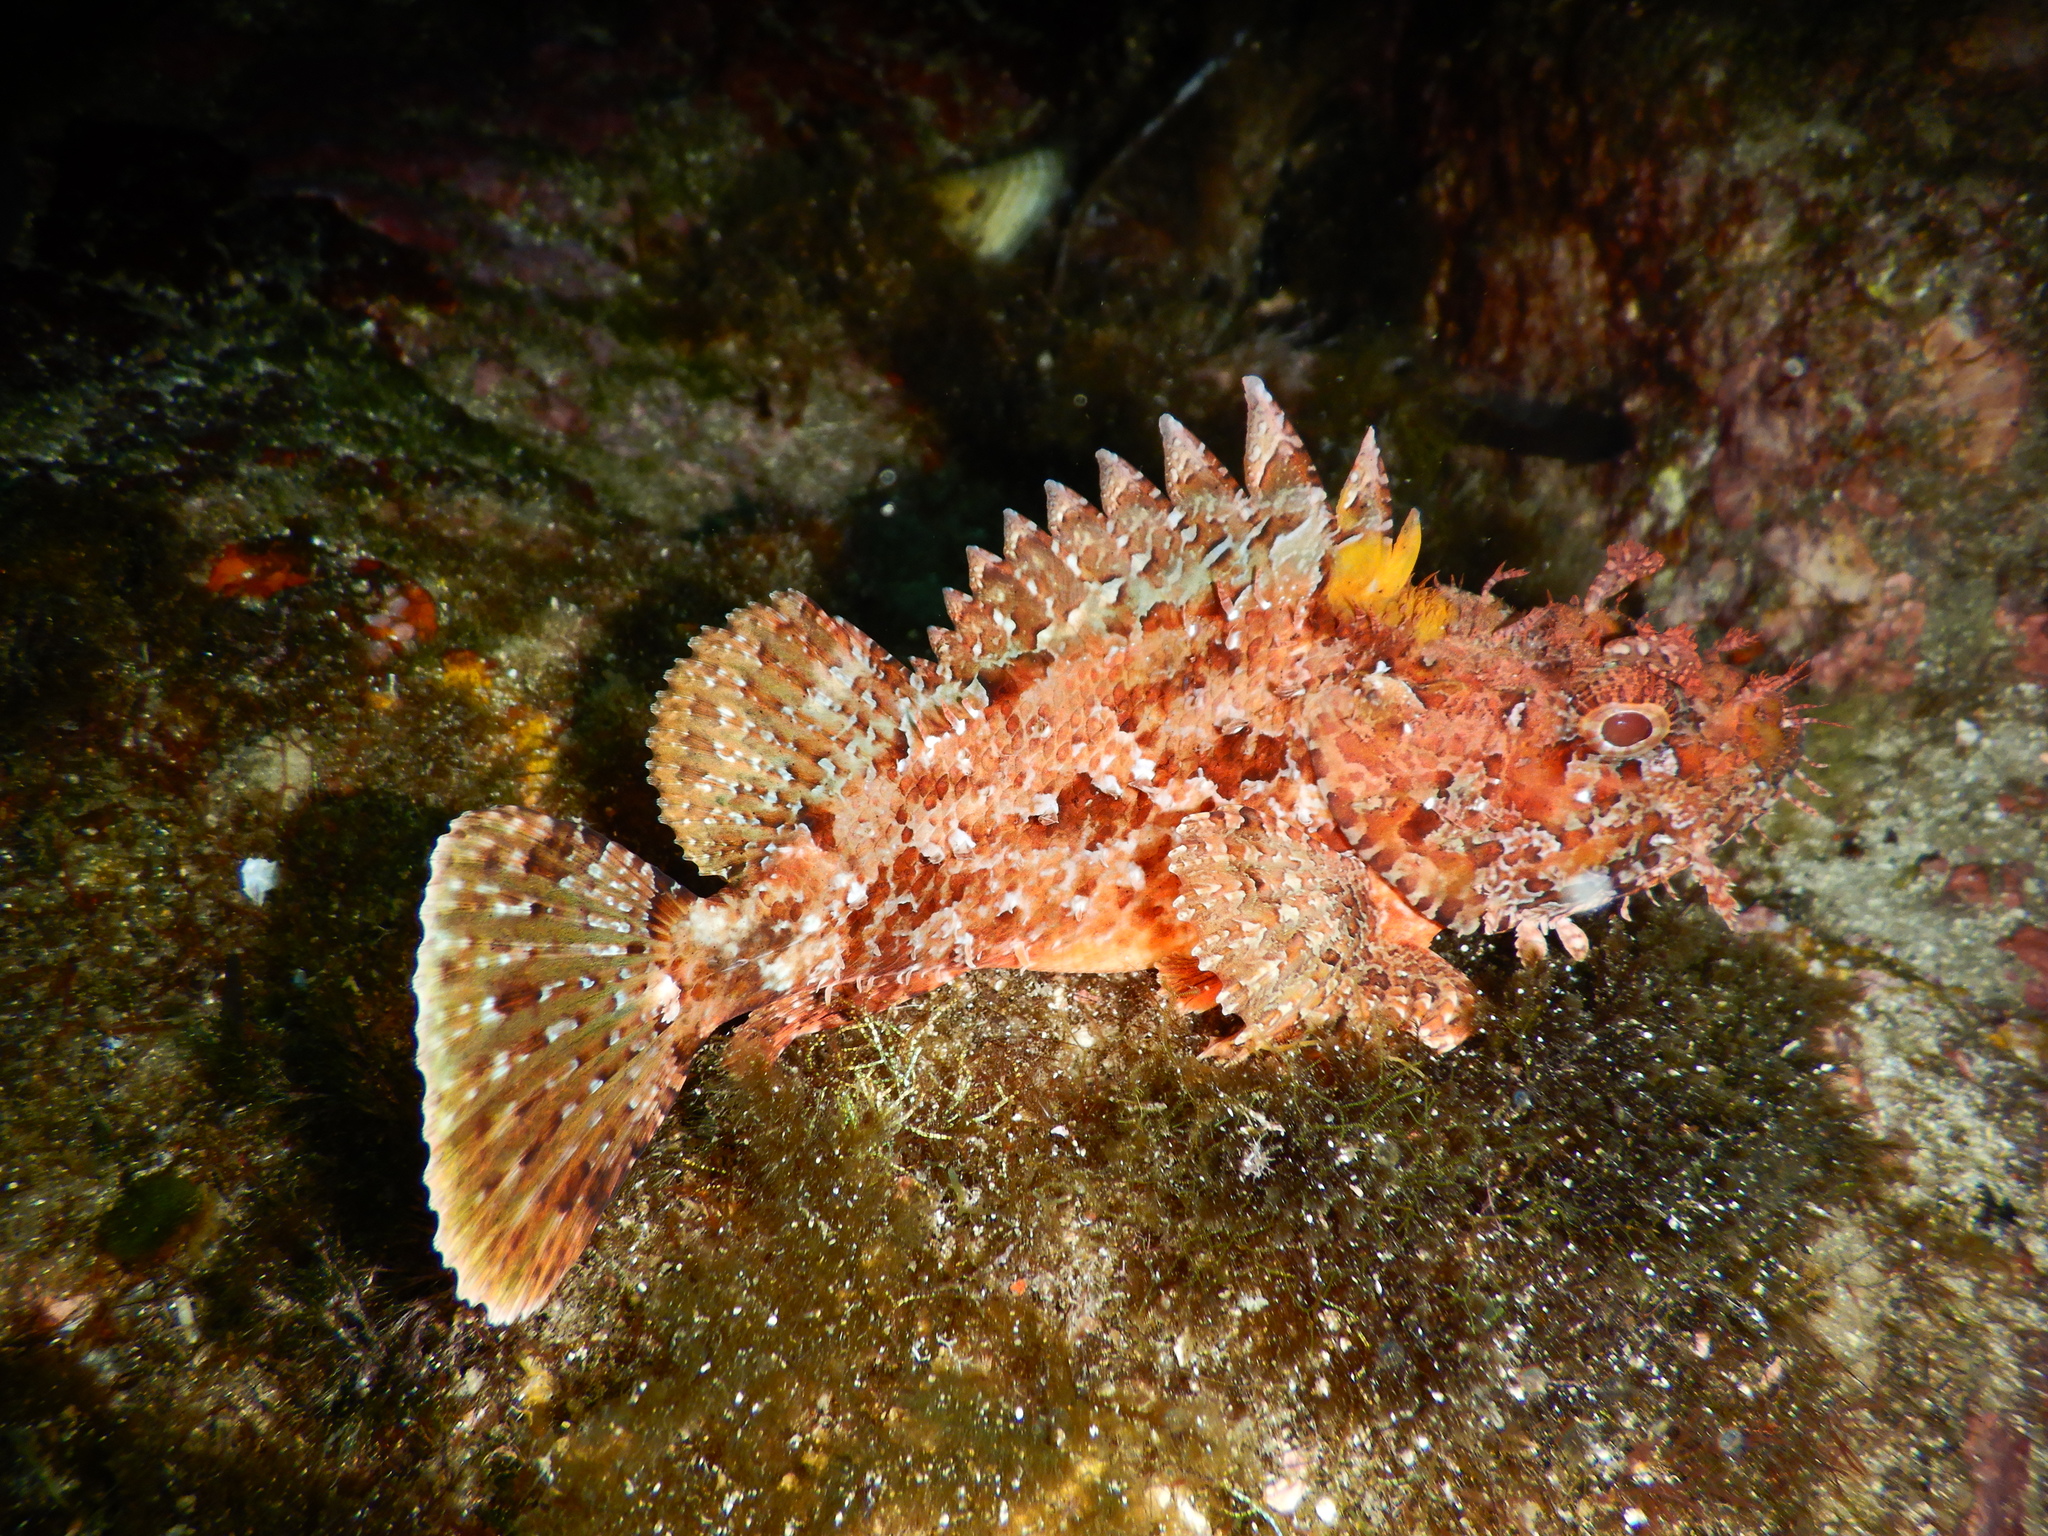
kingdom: Animalia
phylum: Chordata
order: Scorpaeniformes
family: Scorpaenidae
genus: Scorpaena
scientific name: Scorpaena scrofa
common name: Red scorpionfish
